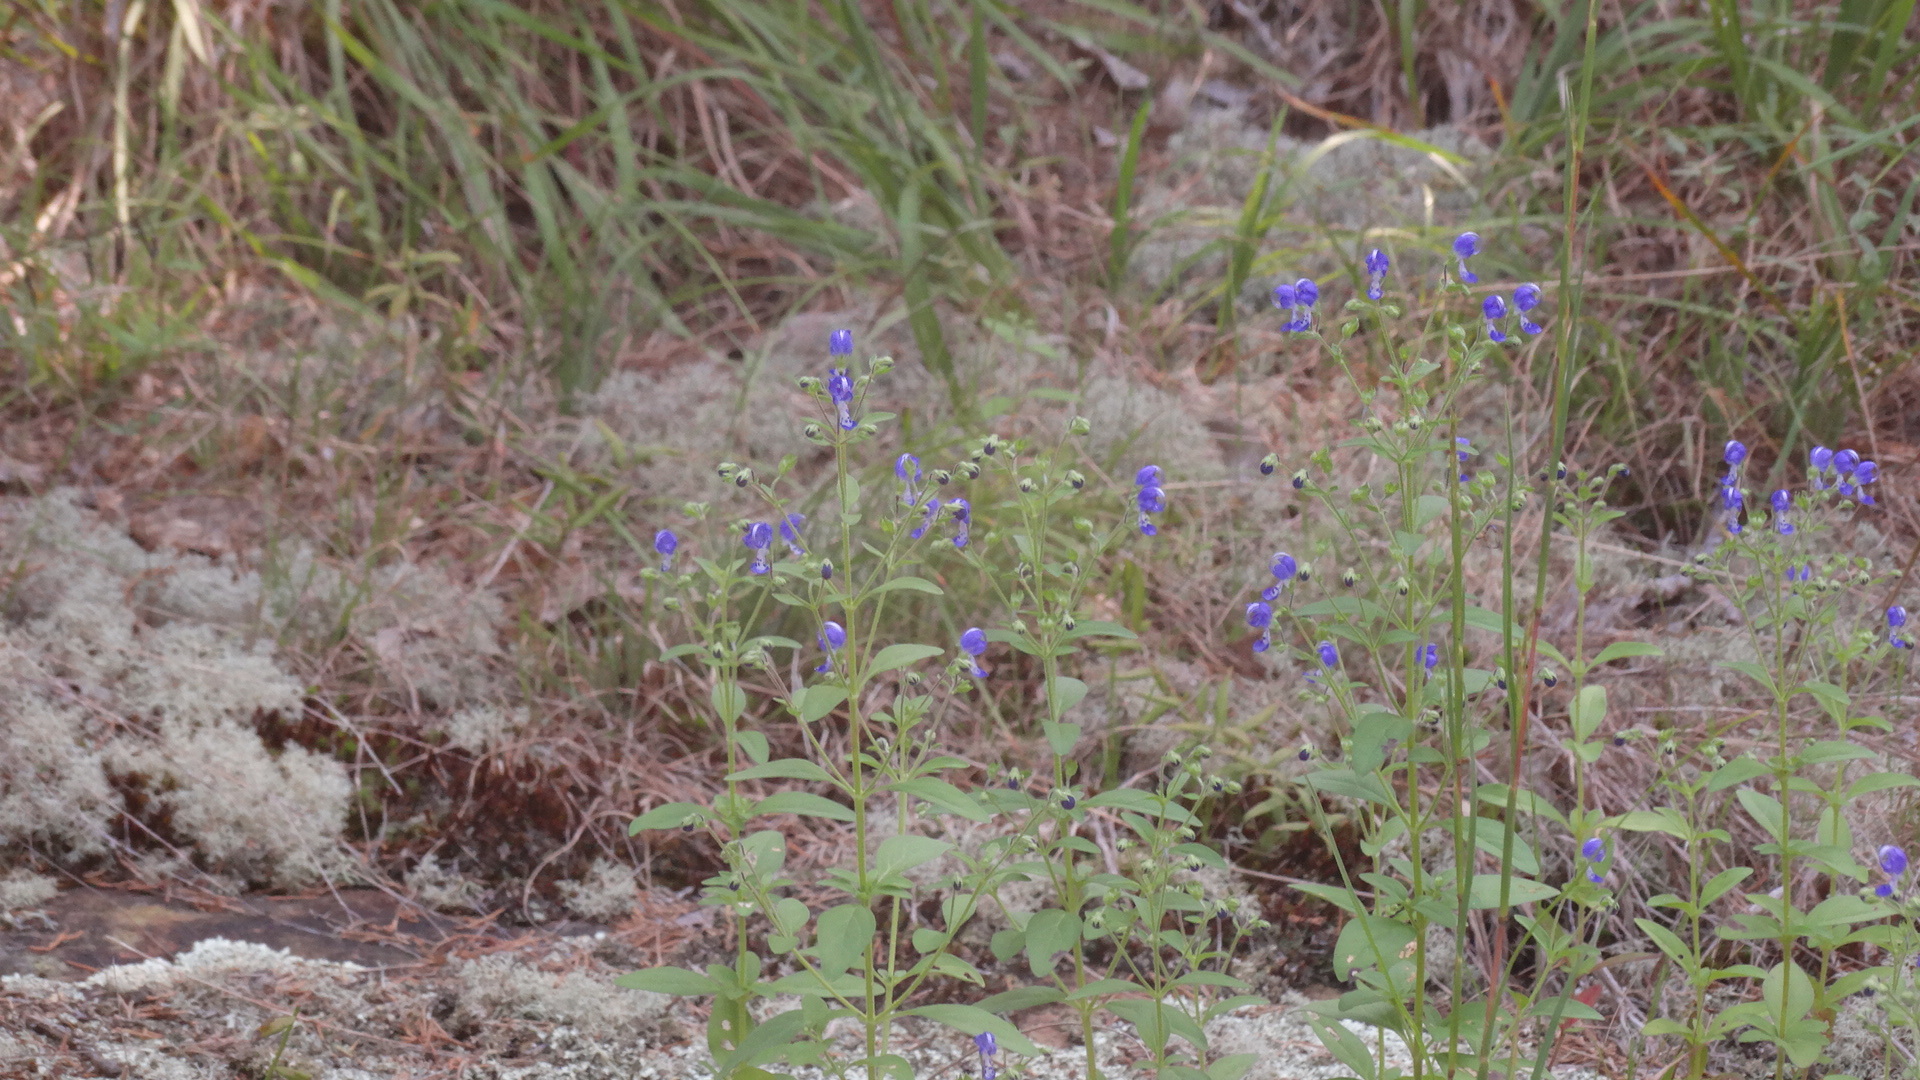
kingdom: Plantae
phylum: Tracheophyta
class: Magnoliopsida
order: Lamiales
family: Lamiaceae
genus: Trichostema
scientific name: Trichostema dichotomum
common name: Bastard pennyroyal
